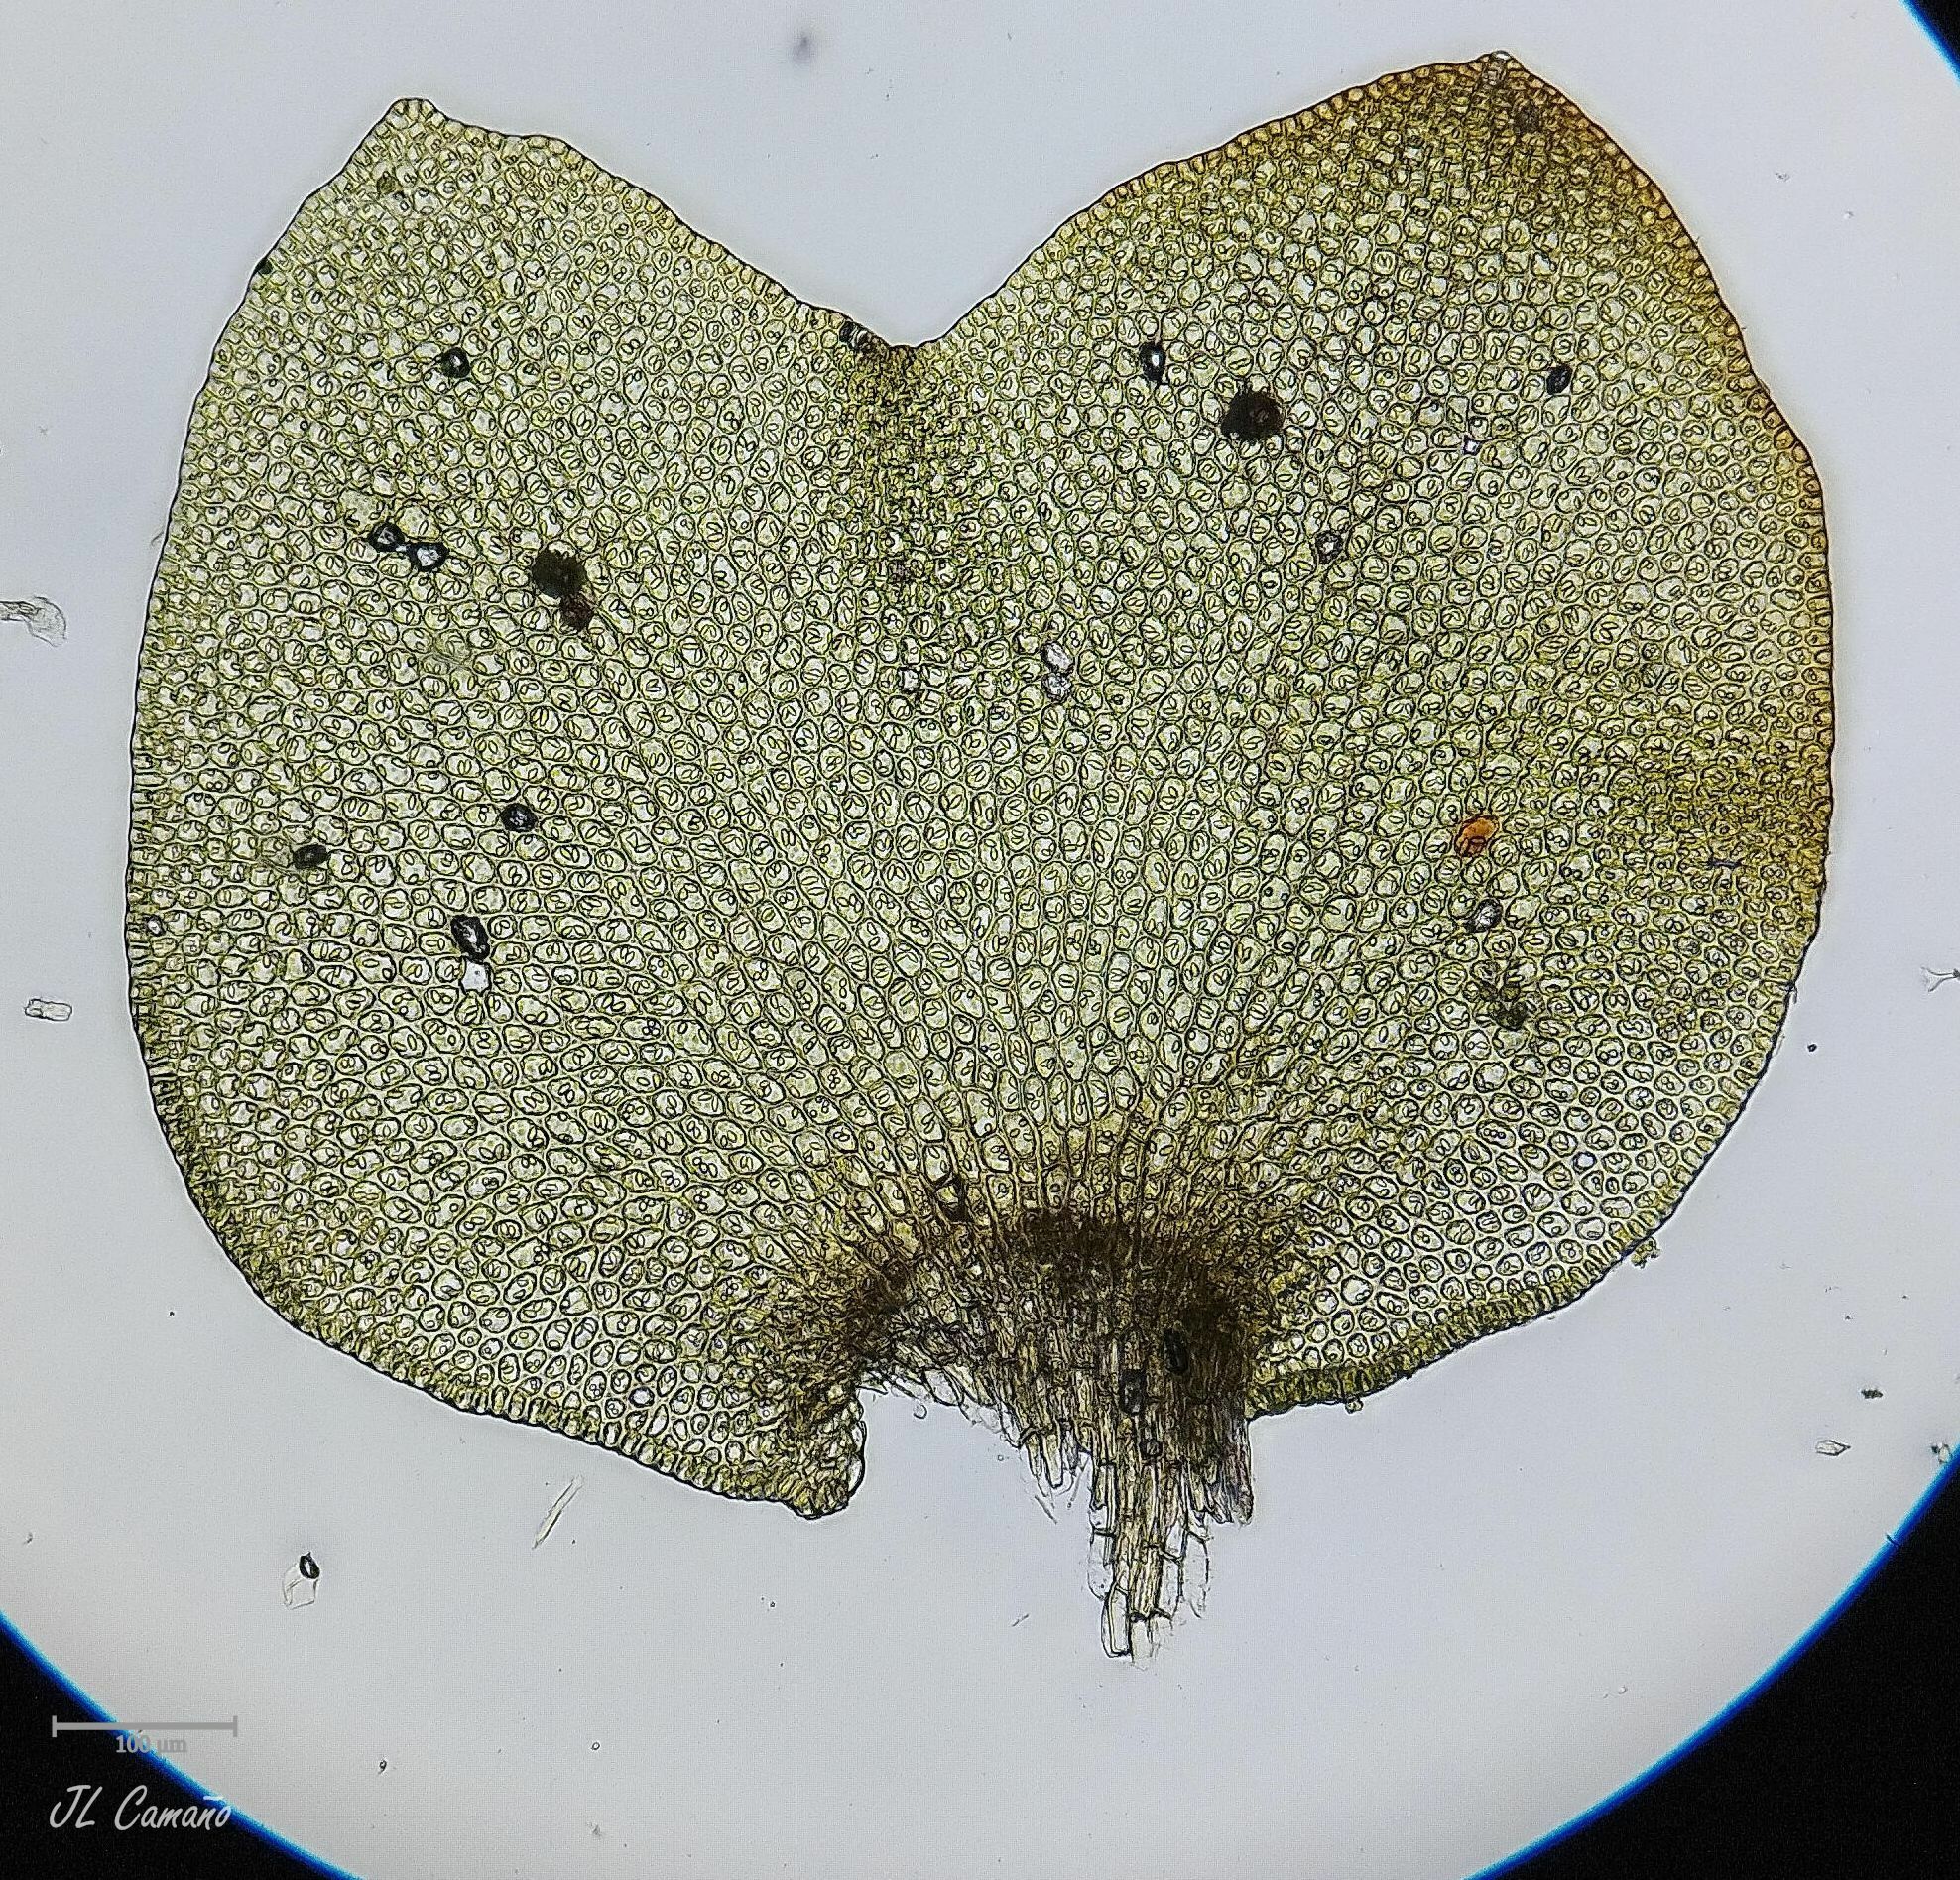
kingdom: Plantae
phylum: Marchantiophyta
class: Jungermanniopsida
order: Jungermanniales
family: Scapaniaceae
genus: Scapania
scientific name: Scapania compacta
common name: Thick-set earwort
